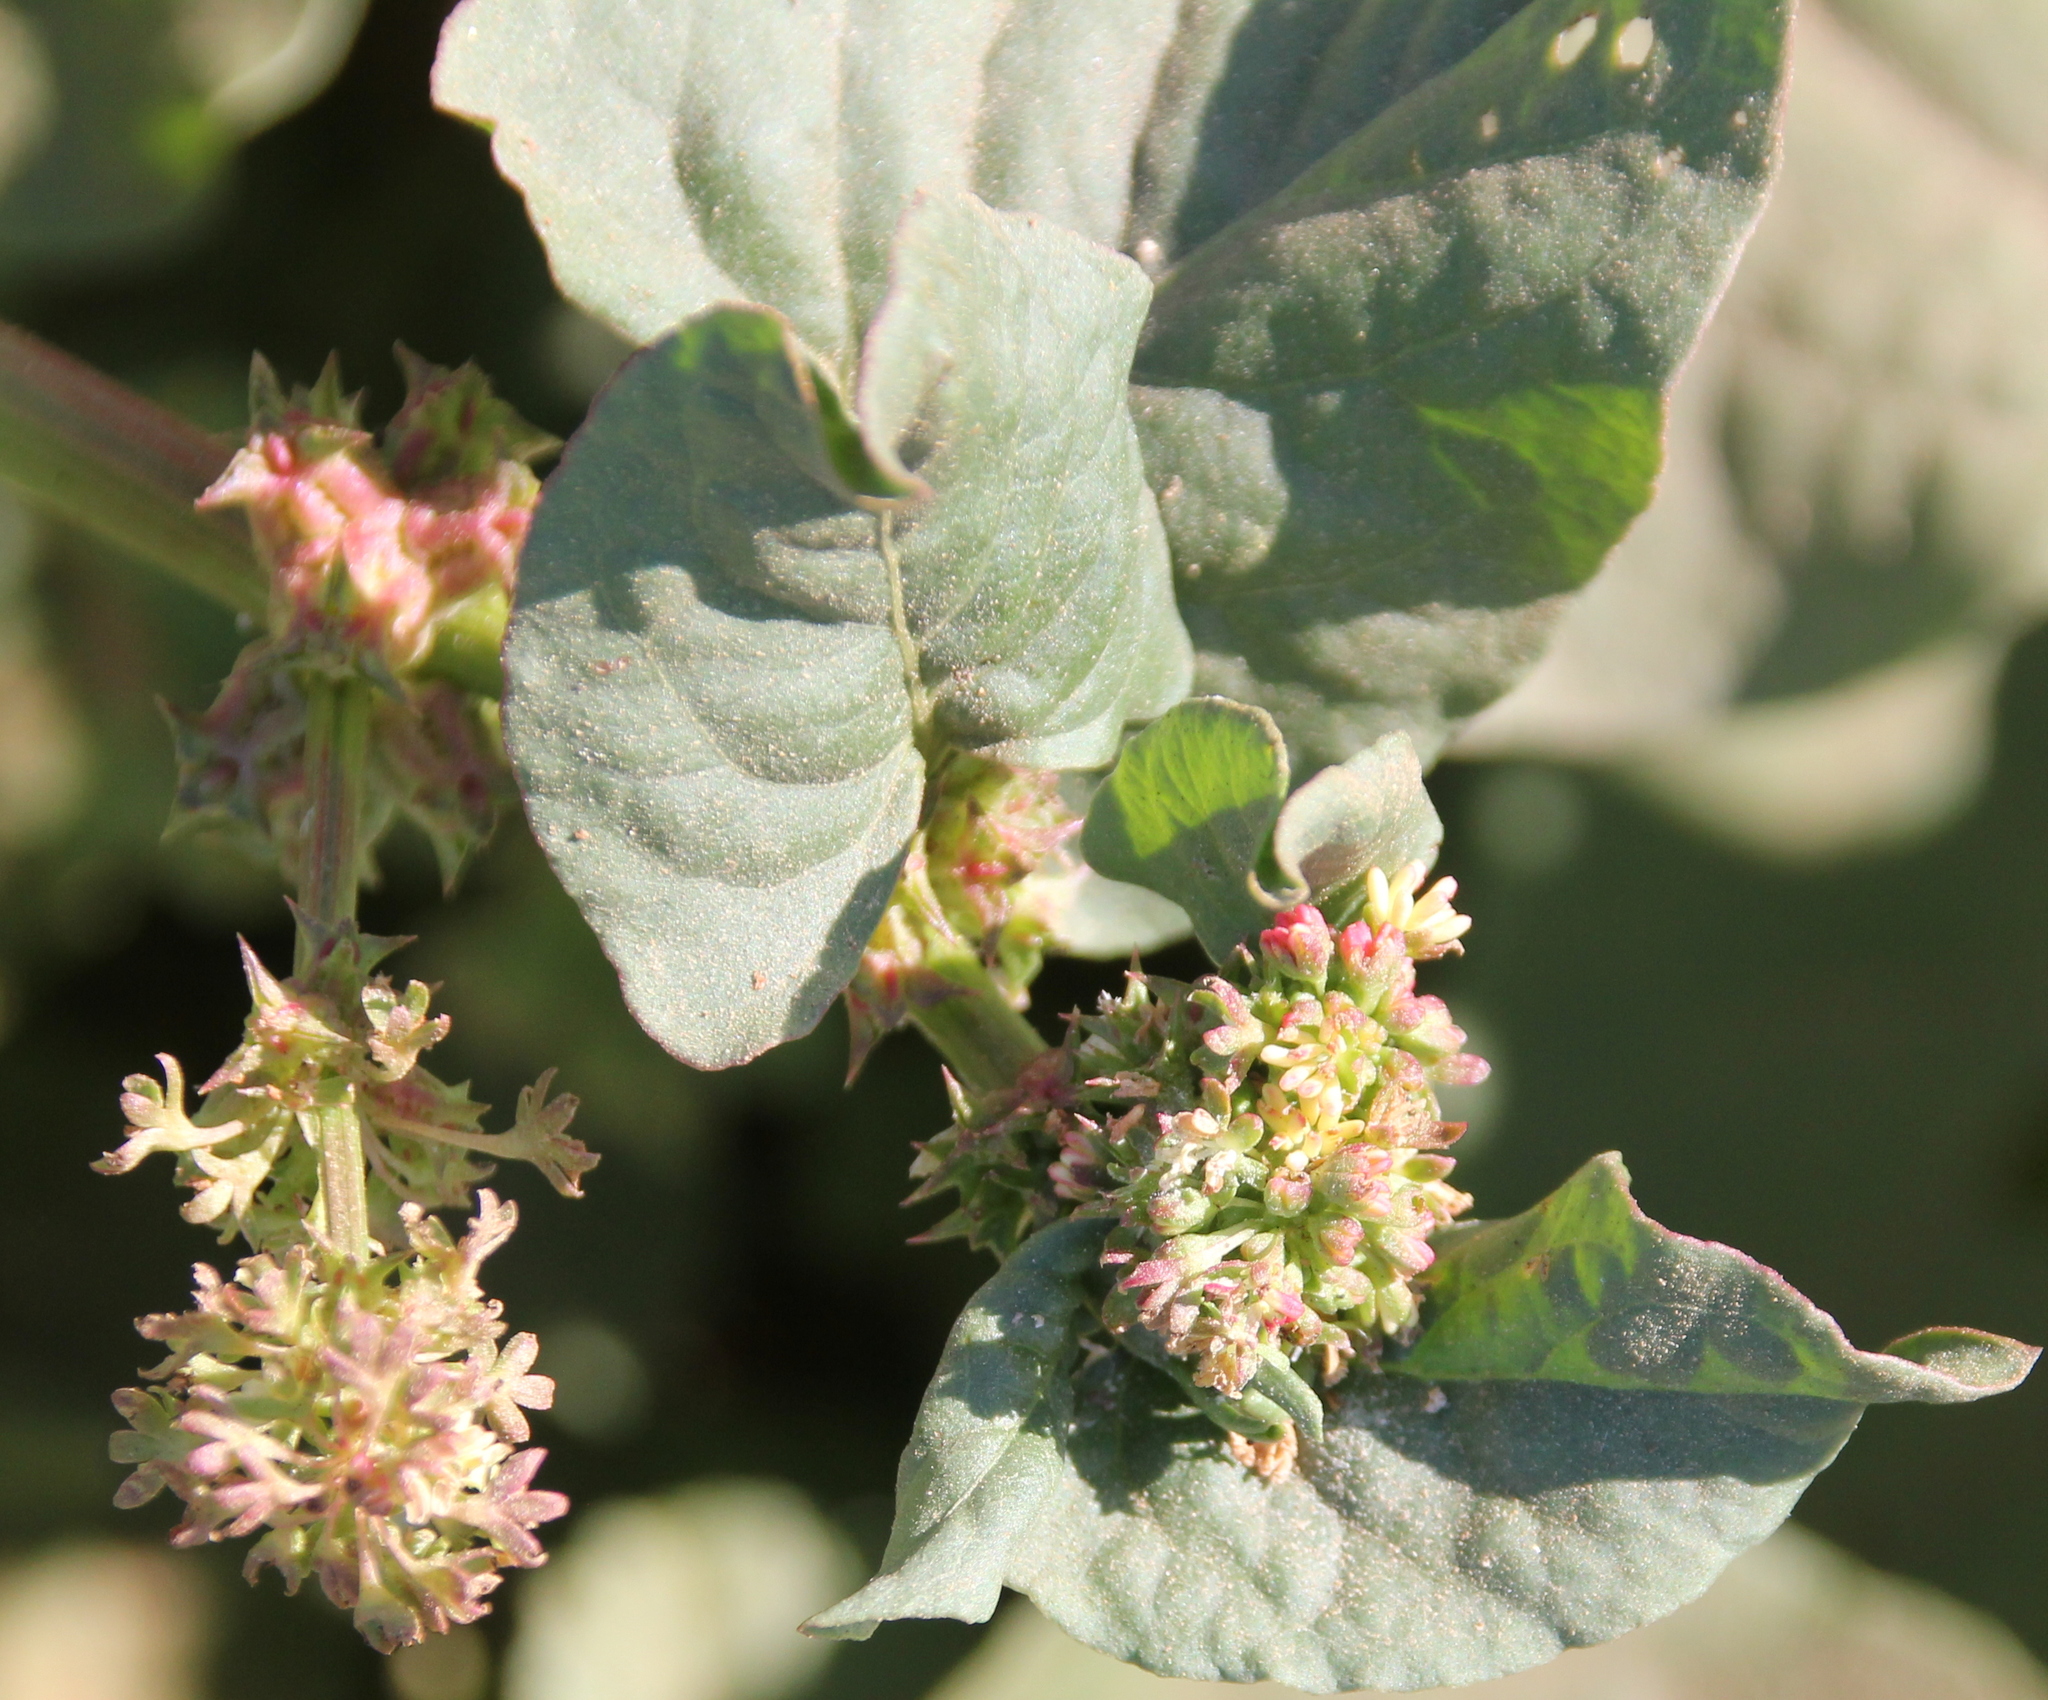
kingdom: Plantae
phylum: Tracheophyta
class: Magnoliopsida
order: Caryophyllales
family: Polygonaceae
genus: Rumex
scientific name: Rumex spinosus
